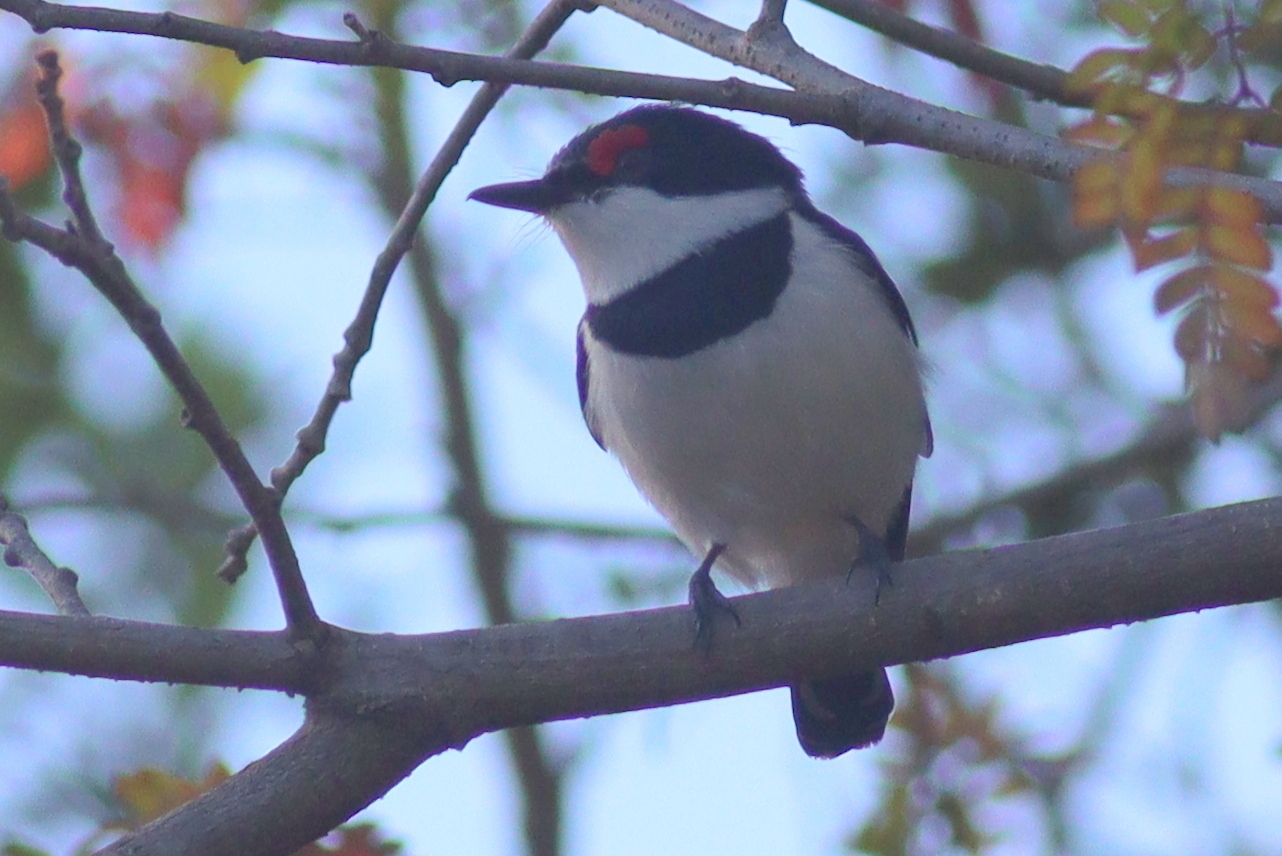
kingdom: Animalia
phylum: Chordata
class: Aves
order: Passeriformes
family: Platysteiridae
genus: Platysteira
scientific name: Platysteira cyanea
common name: Brown-throated wattle-eye
